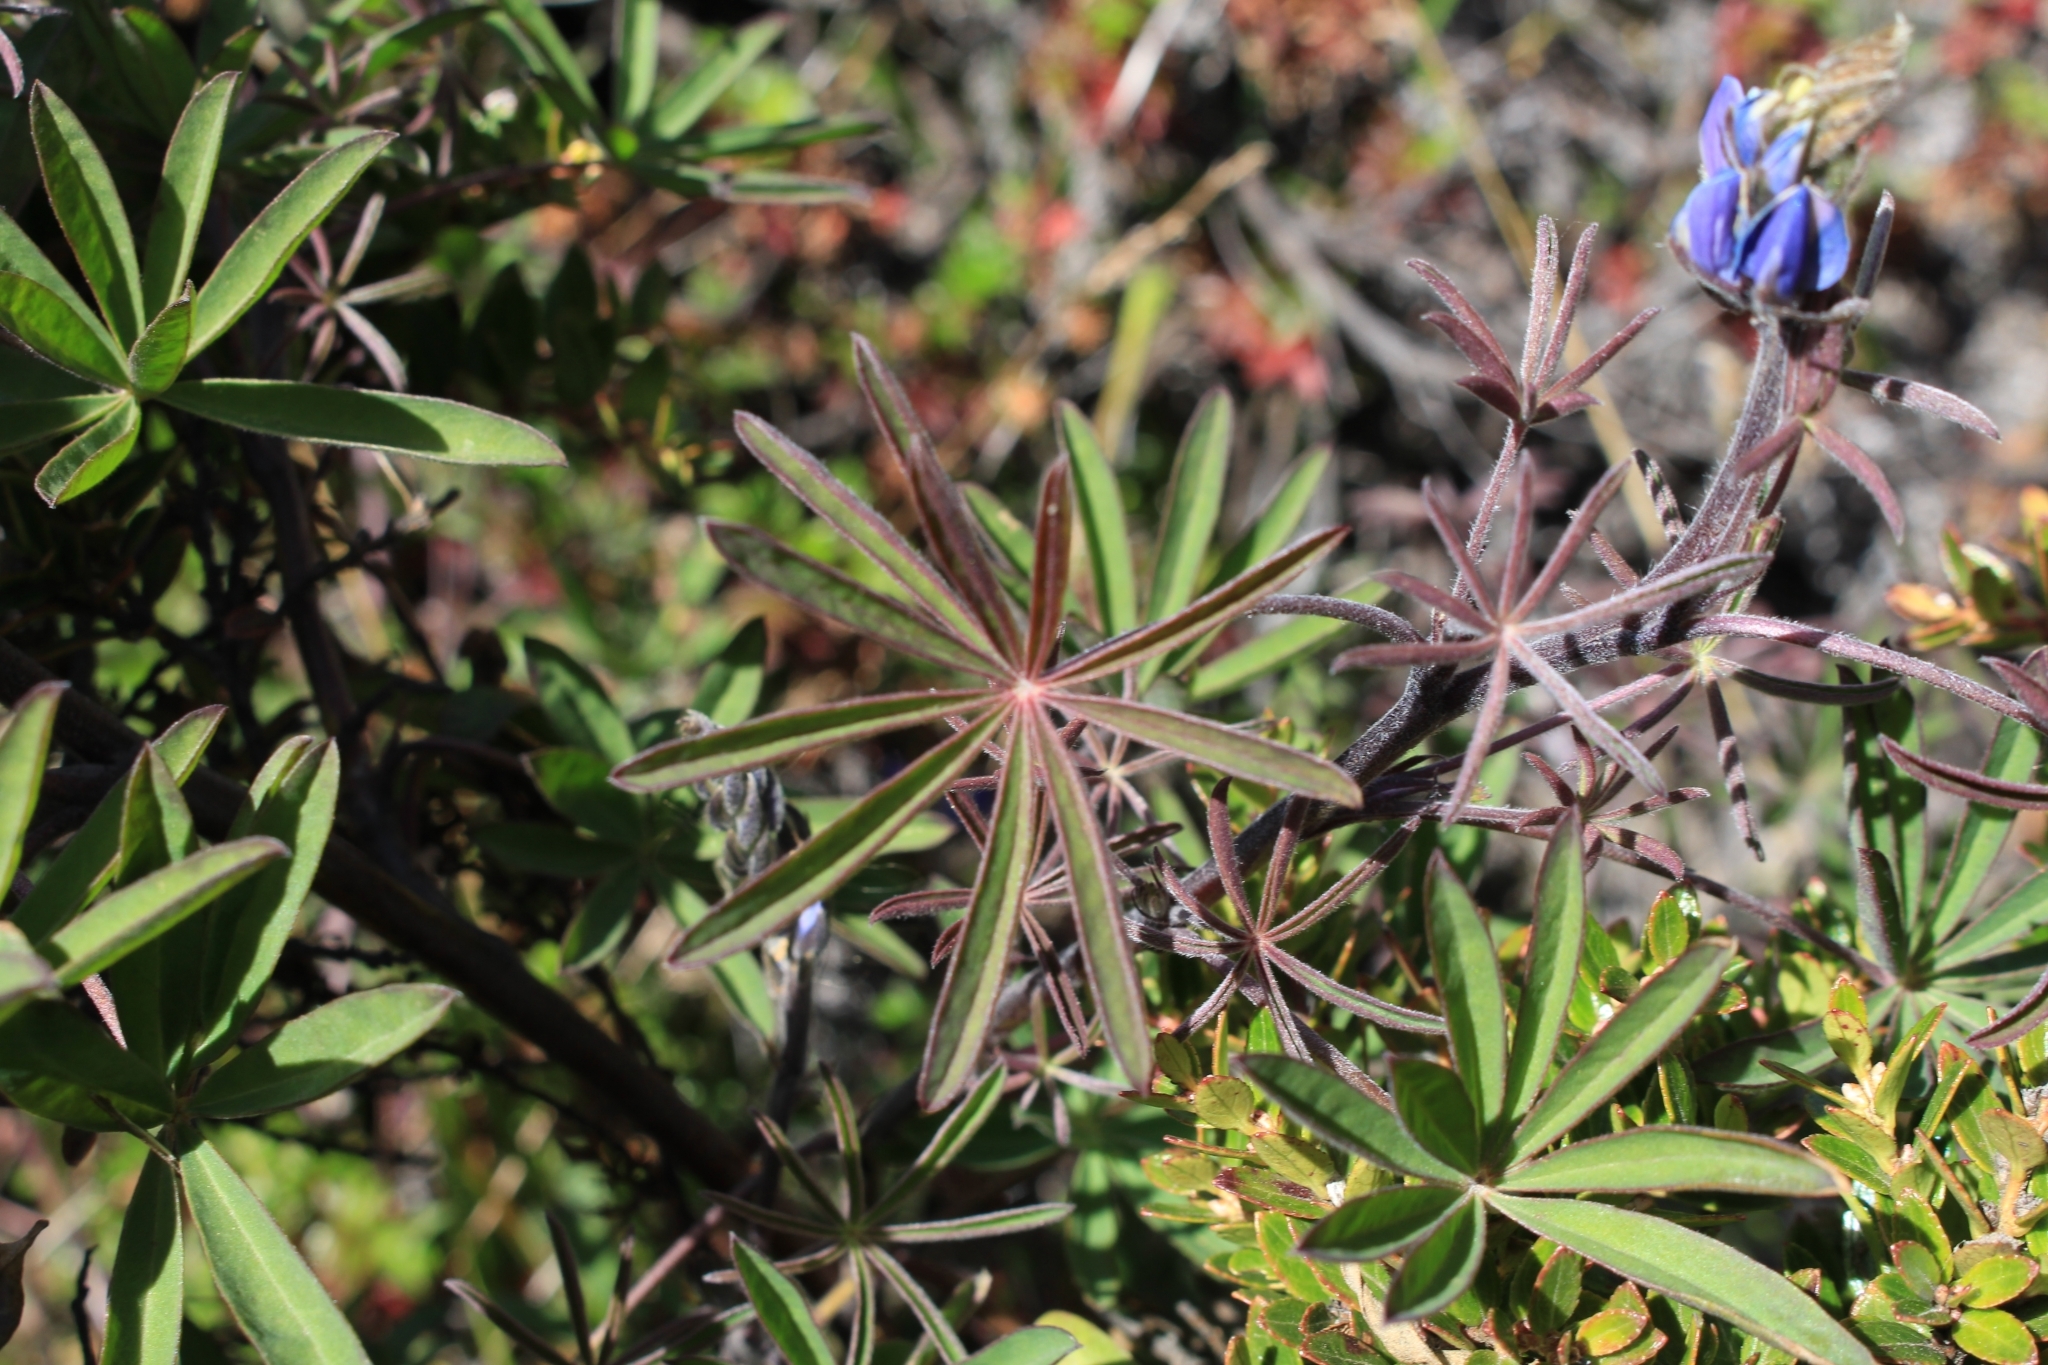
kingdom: Plantae
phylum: Tracheophyta
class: Magnoliopsida
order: Fabales
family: Fabaceae
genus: Lupinus
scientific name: Lupinus costaricensis
